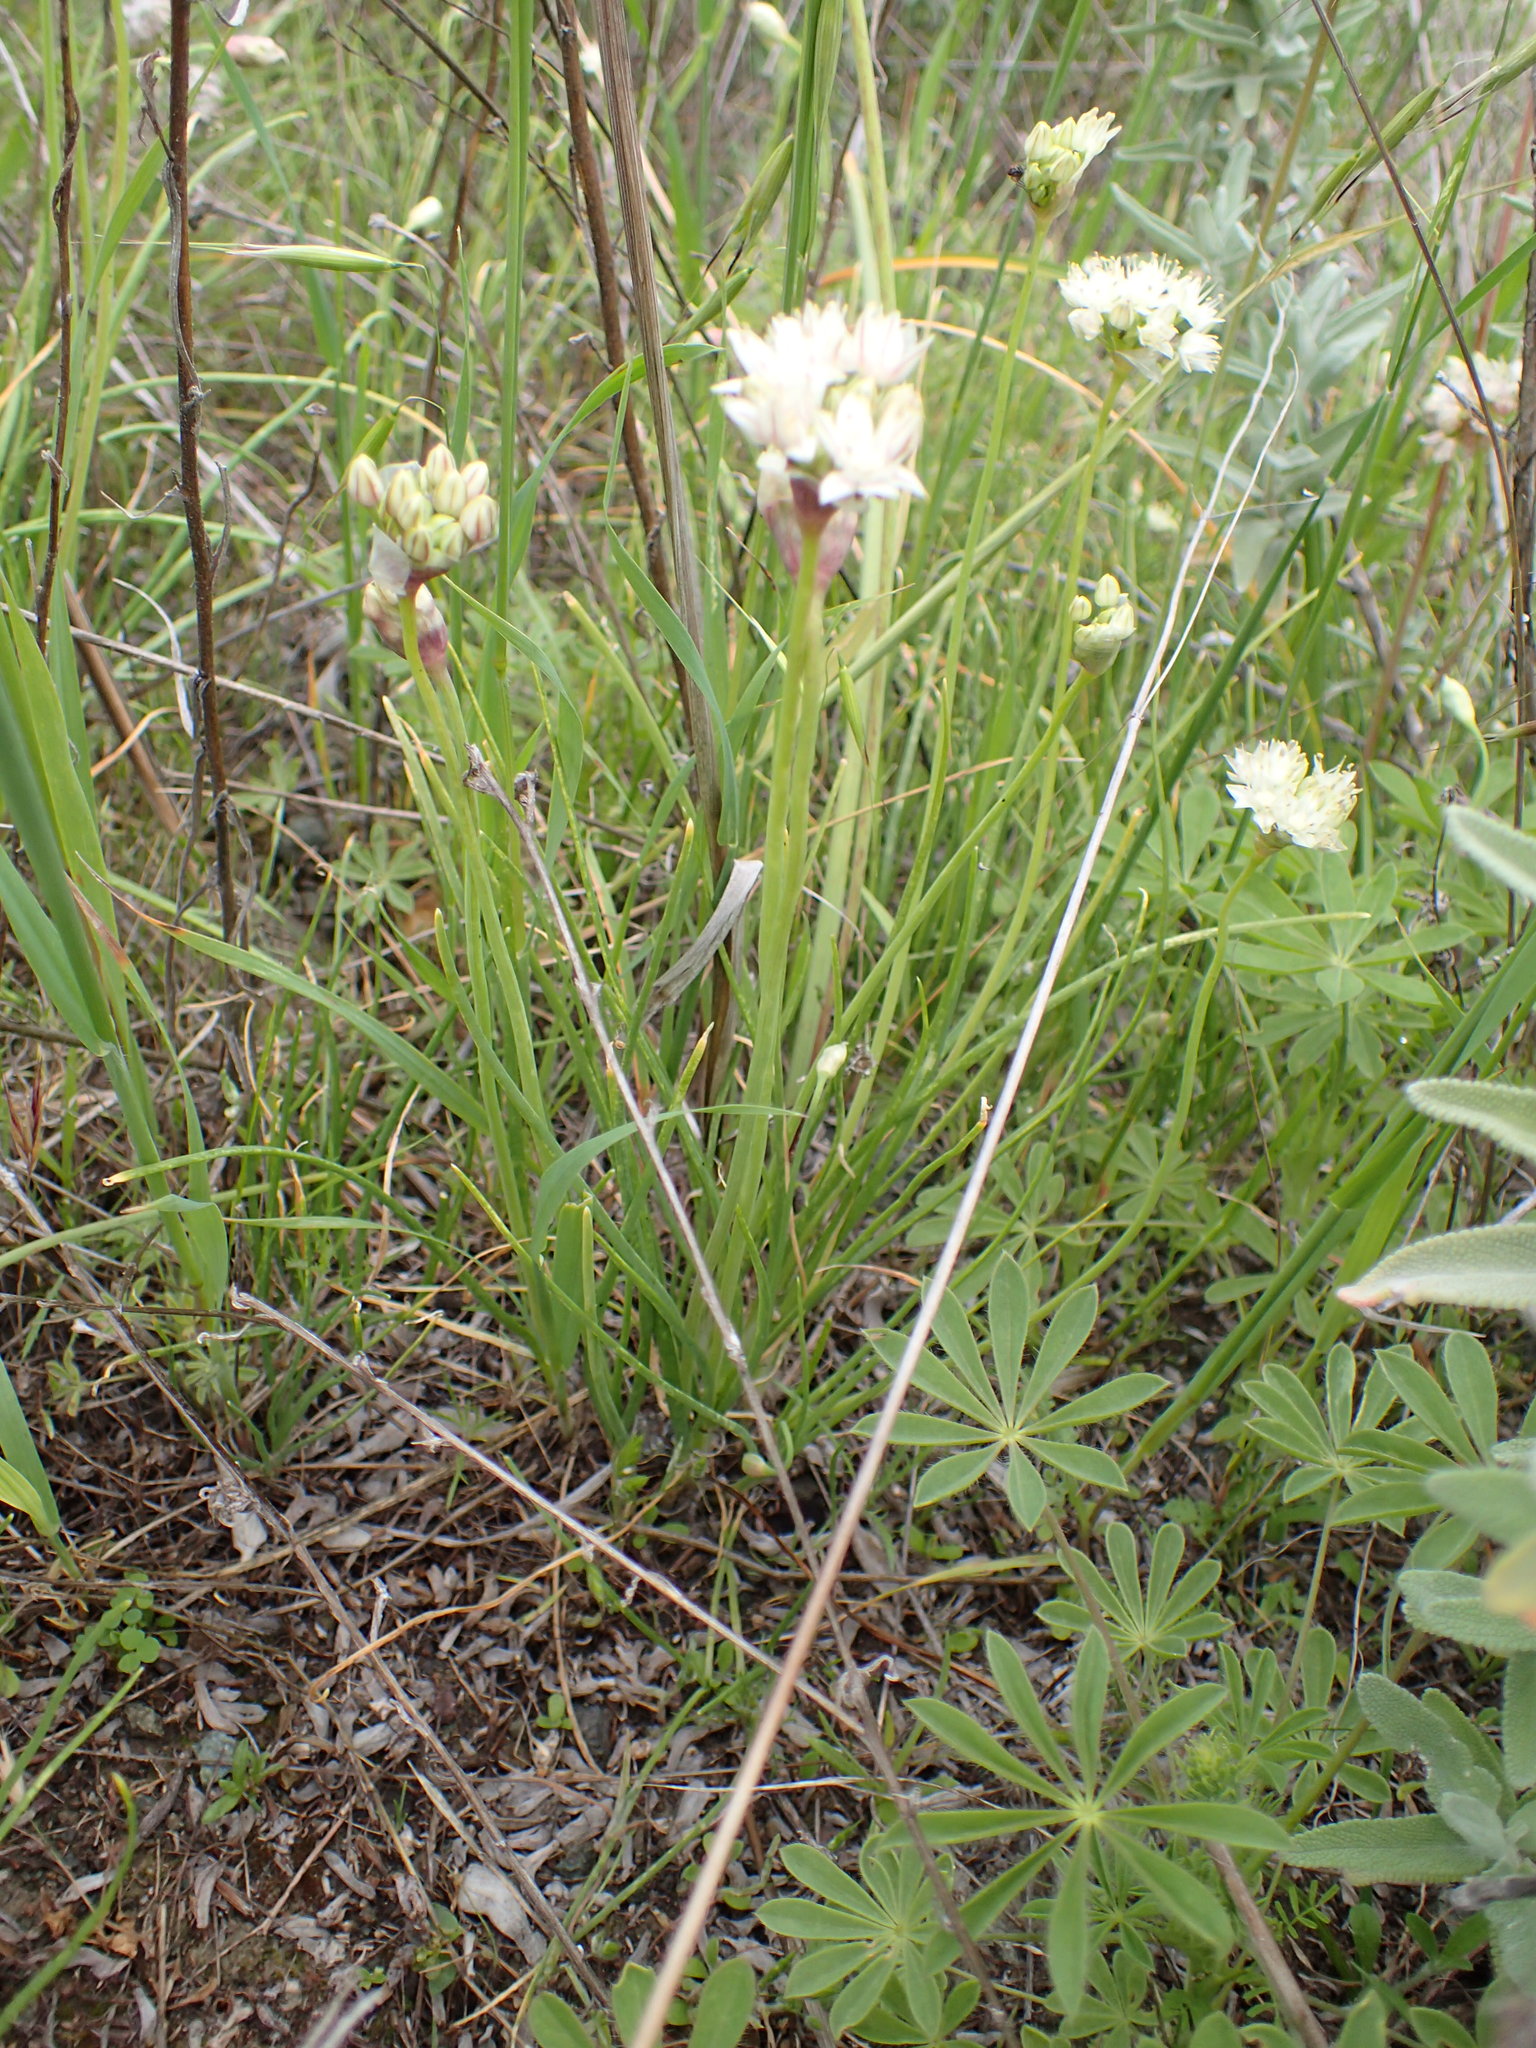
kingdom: Plantae
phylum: Tracheophyta
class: Liliopsida
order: Asparagales
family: Amaryllidaceae
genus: Allium
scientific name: Allium haematochiton
